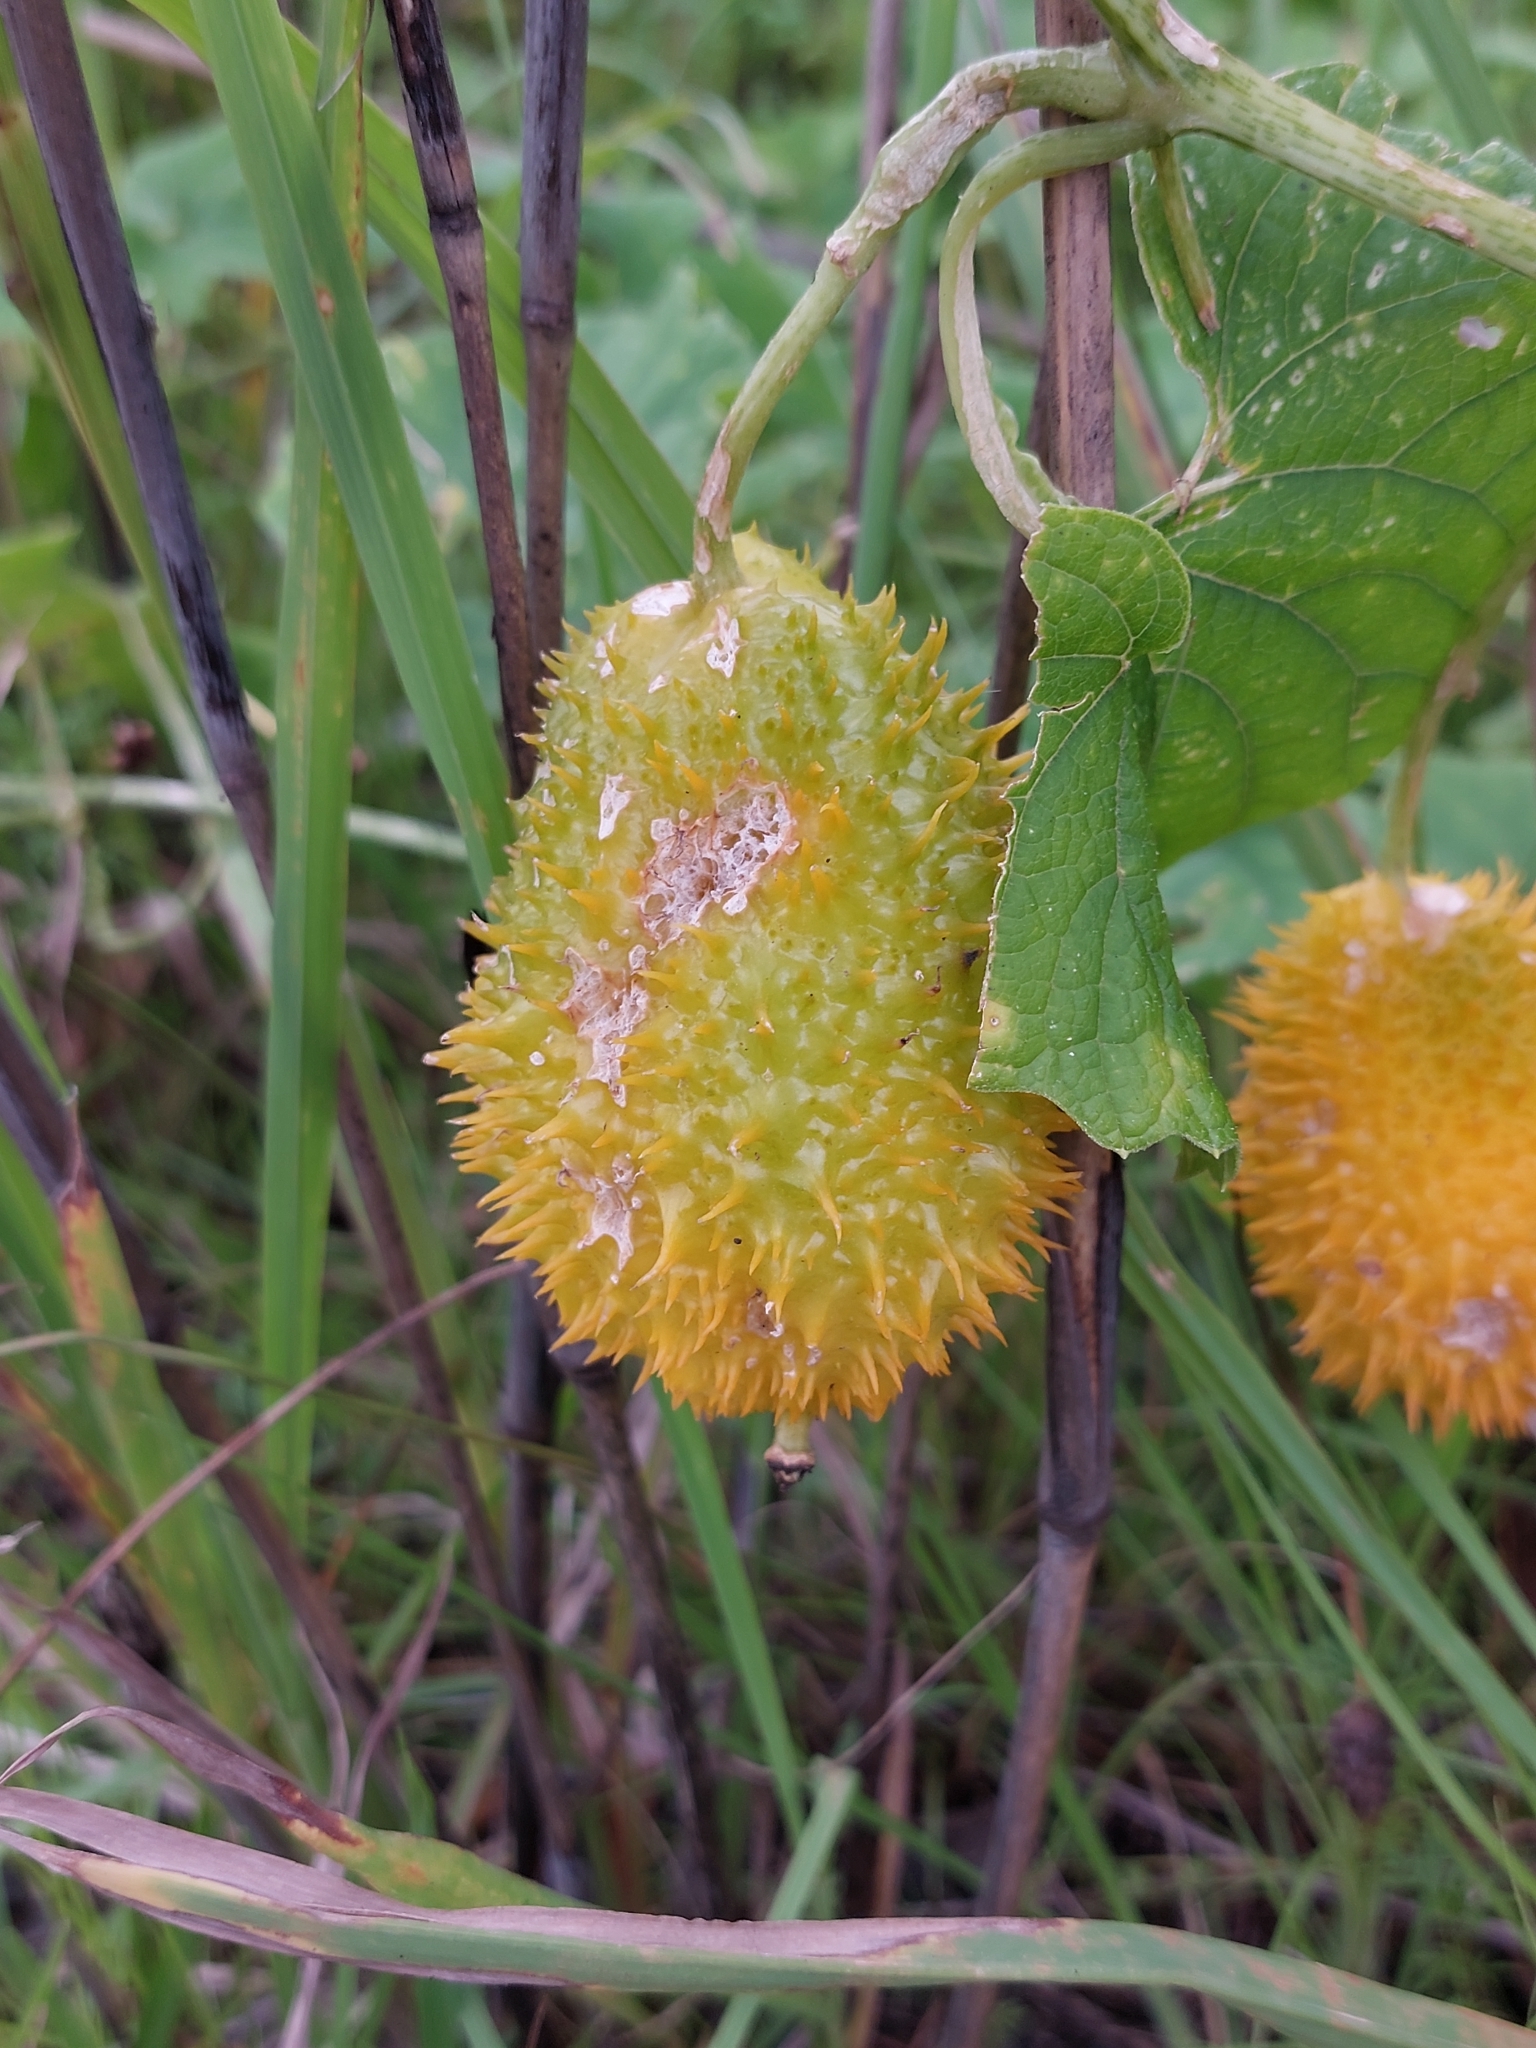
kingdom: Plantae
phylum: Tracheophyta
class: Magnoliopsida
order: Cucurbitales
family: Cucurbitaceae
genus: Momordica
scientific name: Momordica foetida
